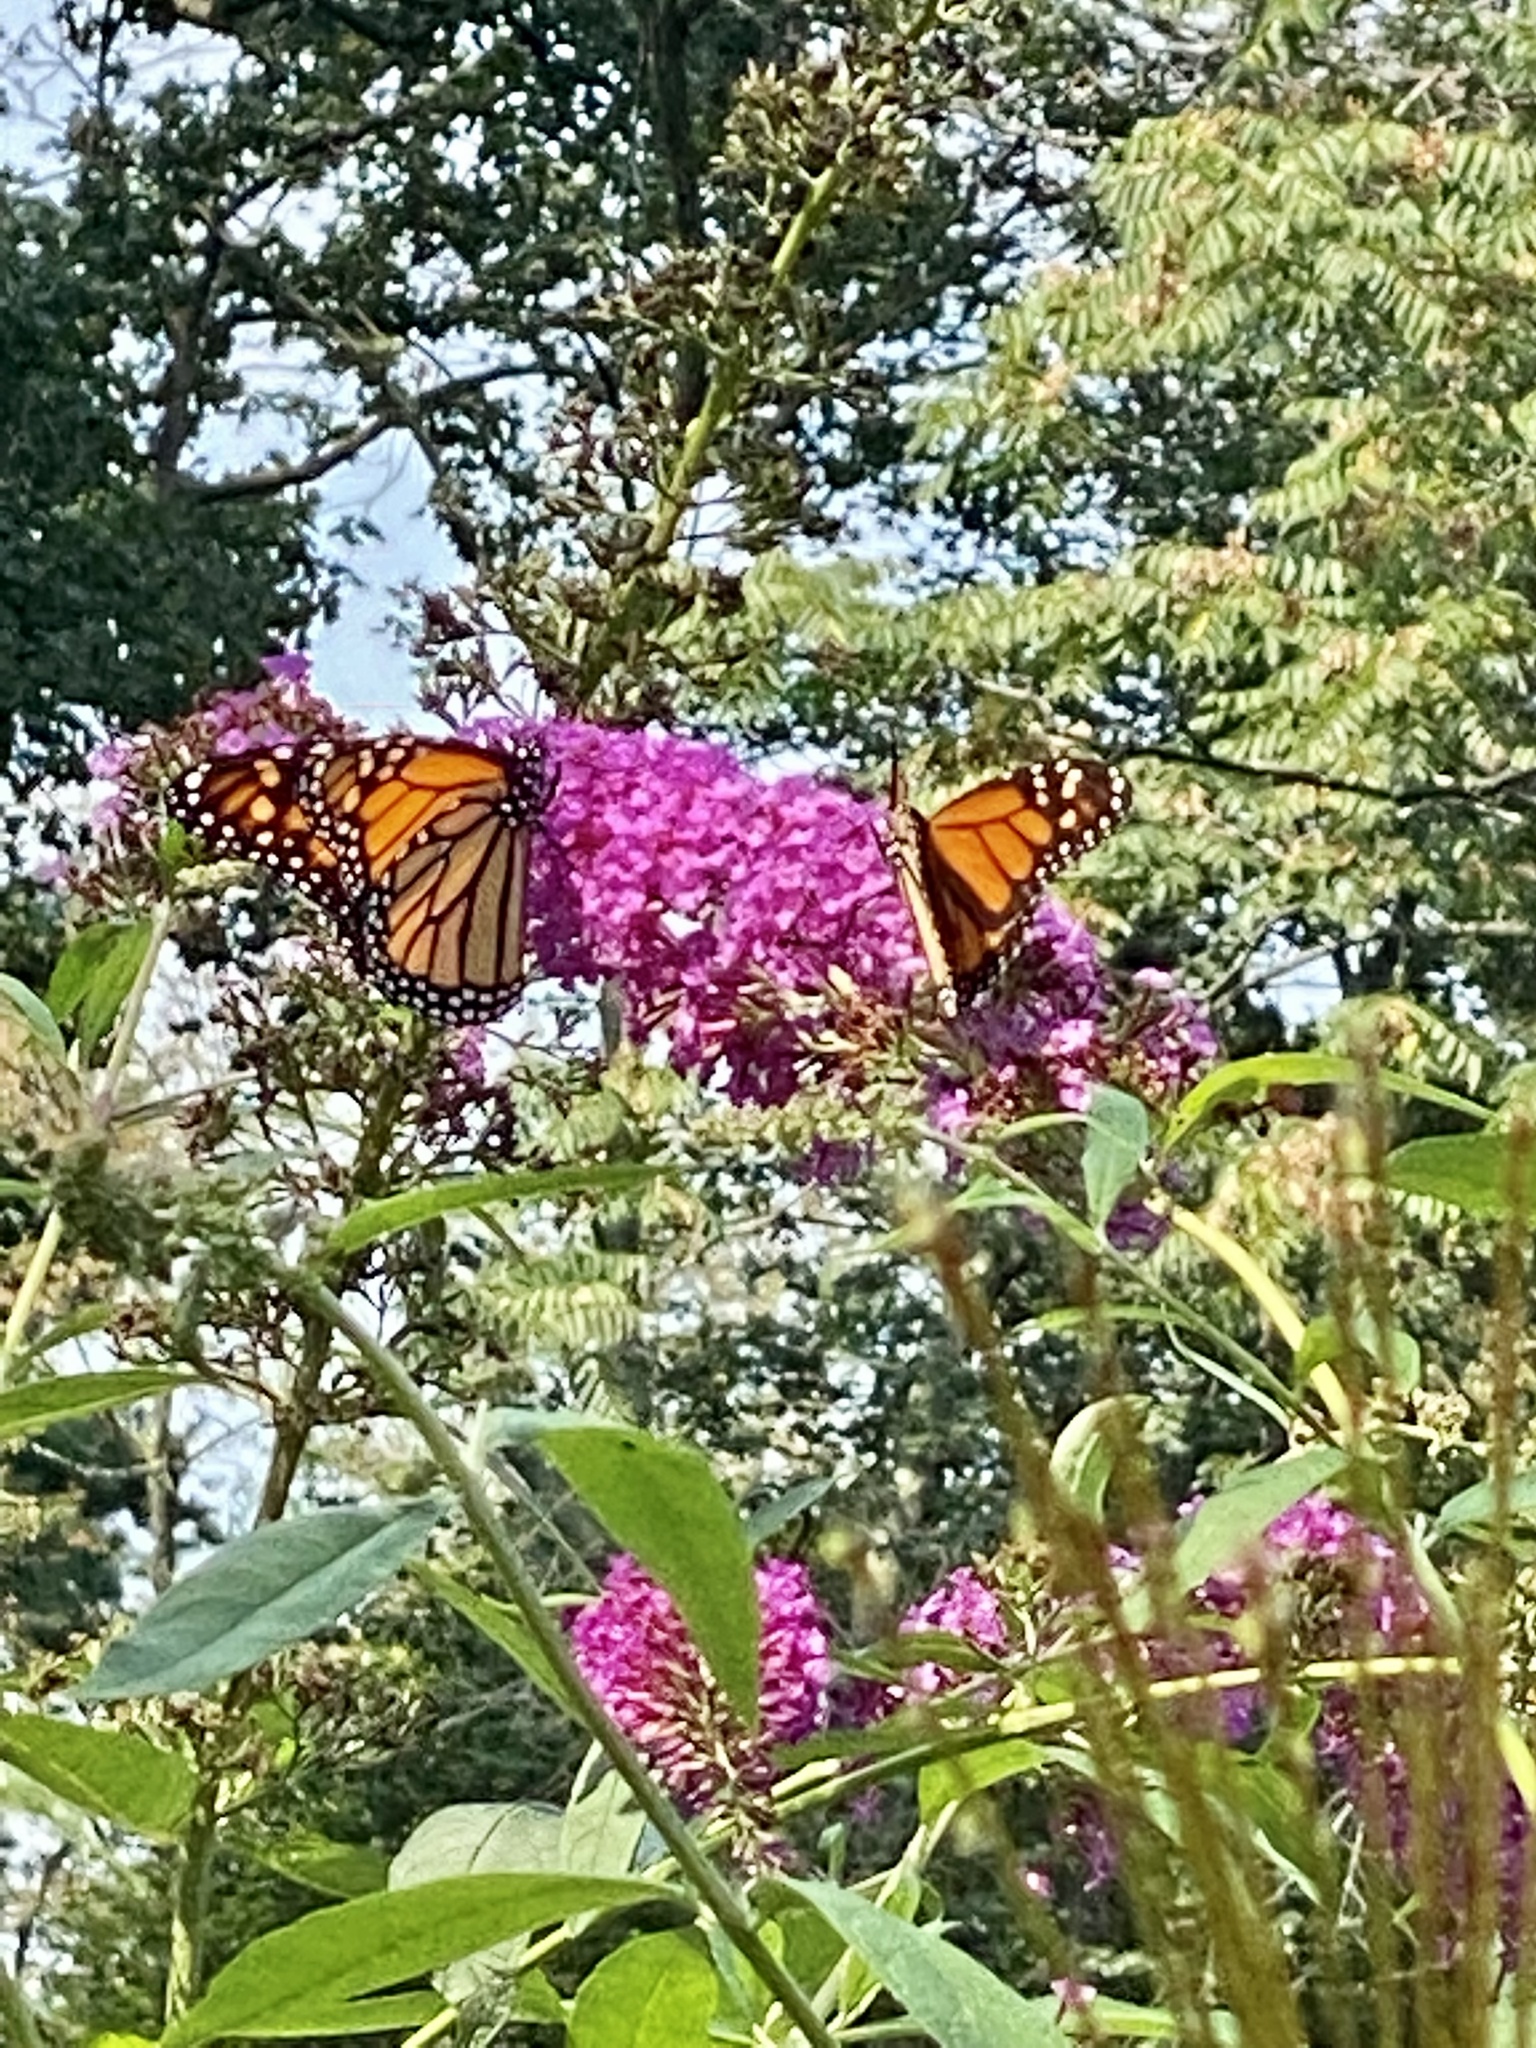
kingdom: Animalia
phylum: Arthropoda
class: Insecta
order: Lepidoptera
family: Nymphalidae
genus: Danaus
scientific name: Danaus plexippus
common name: Monarch
